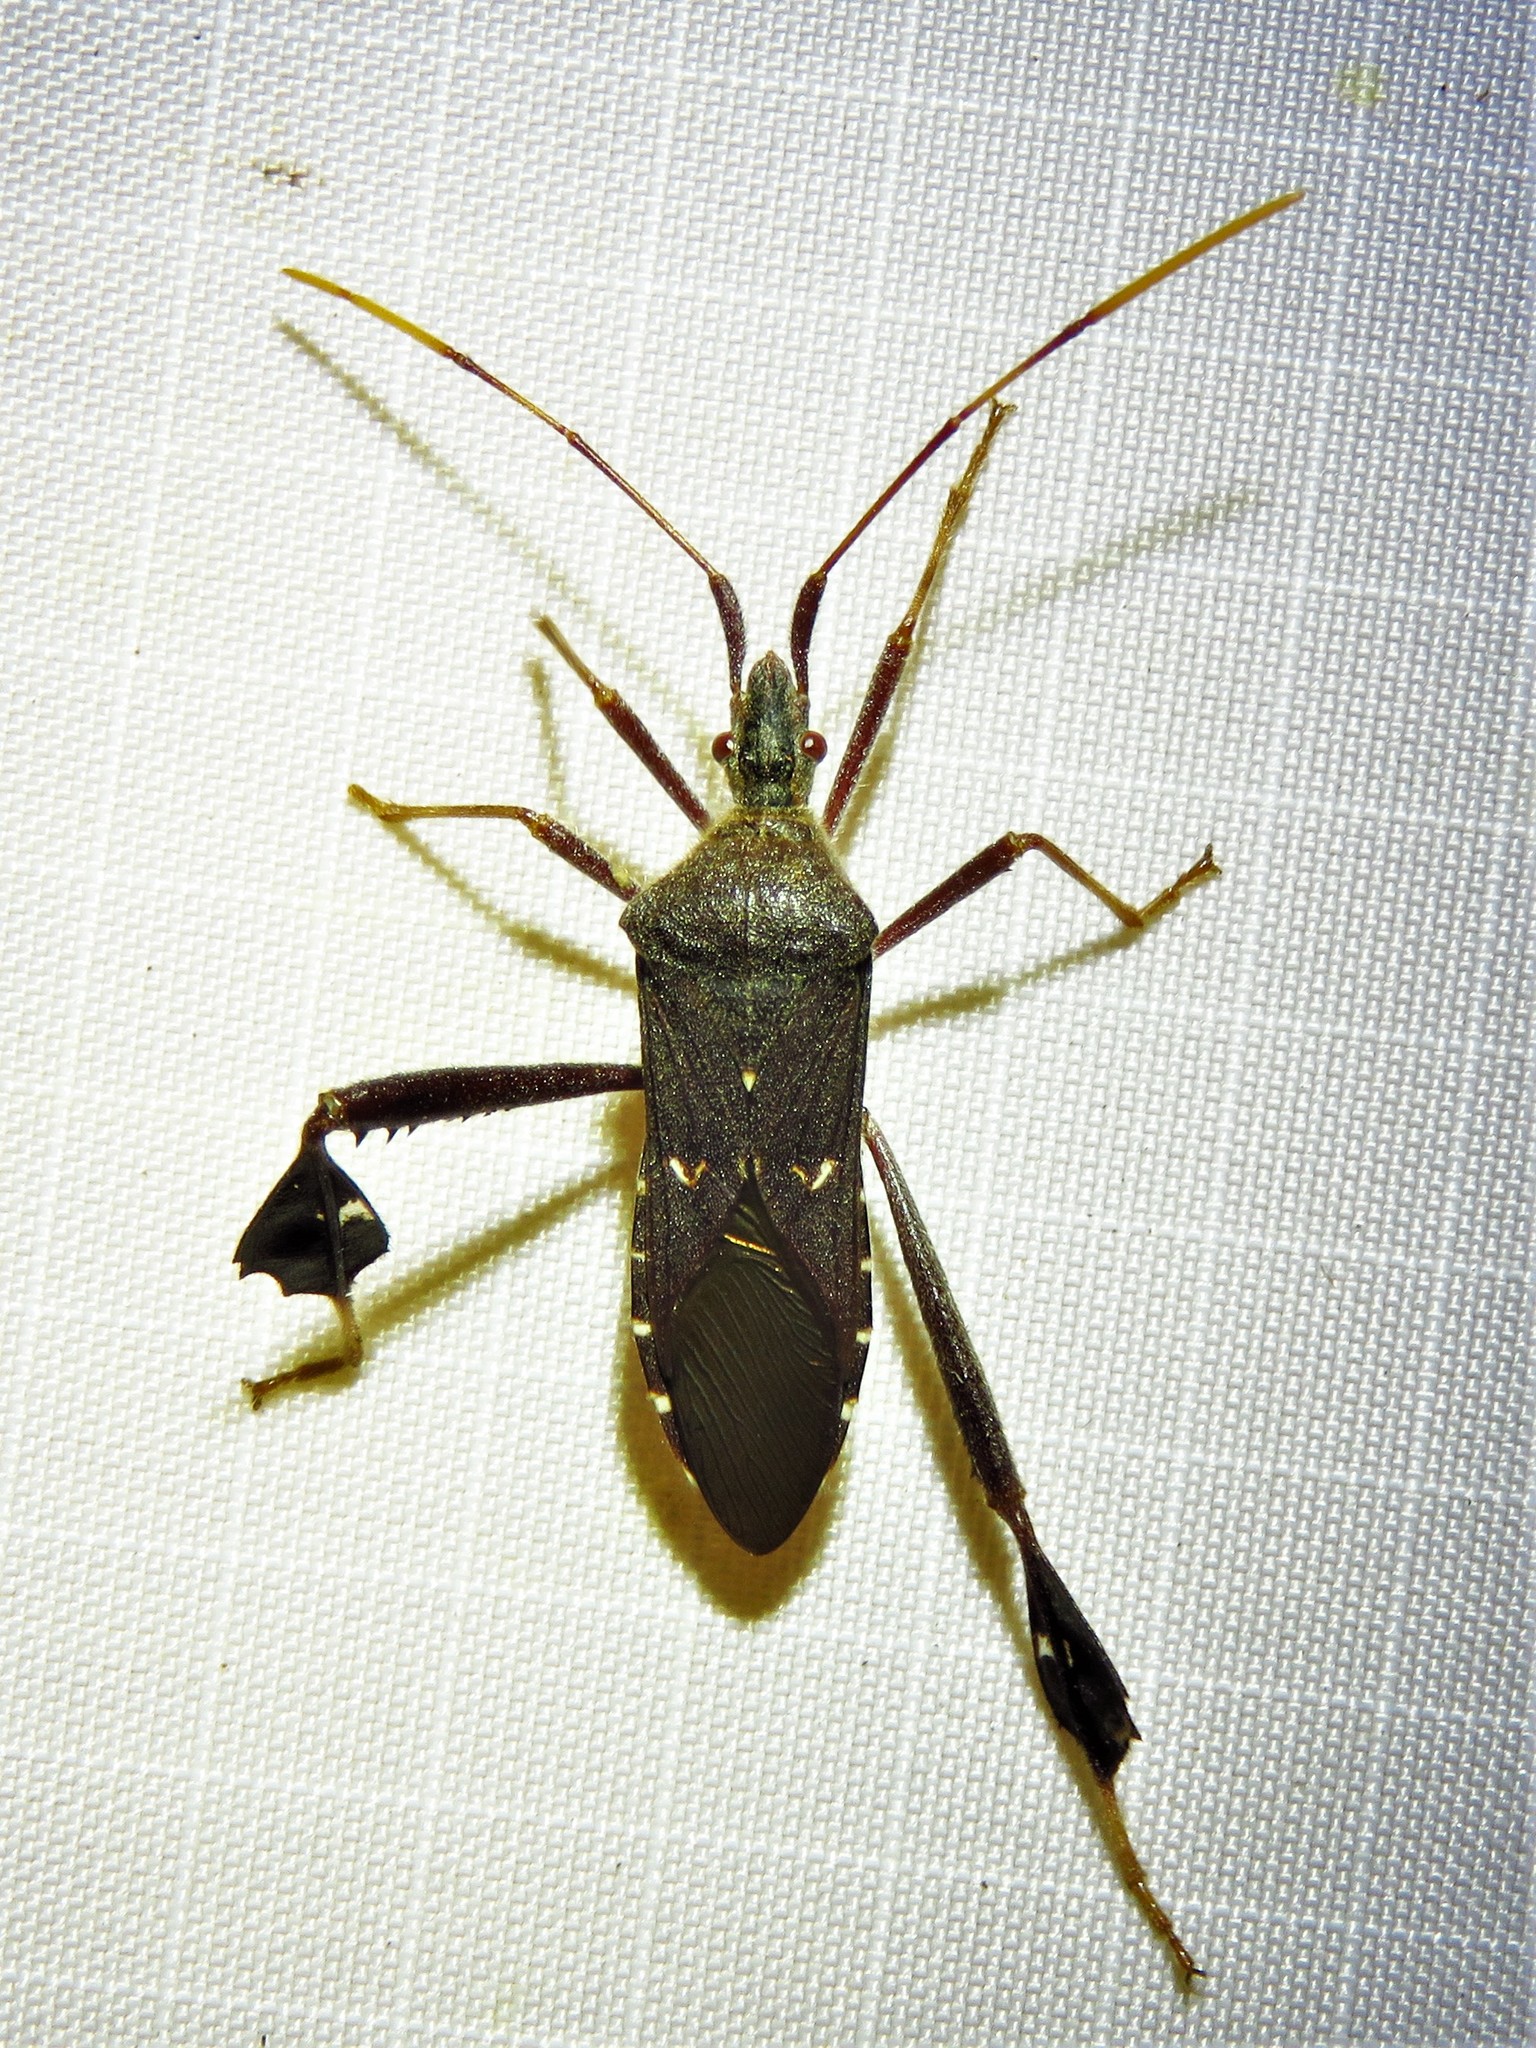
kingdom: Animalia
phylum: Arthropoda
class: Insecta
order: Hemiptera
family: Coreidae
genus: Leptoglossus
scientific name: Leptoglossus oppositus
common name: Northern leaf-footed bug
